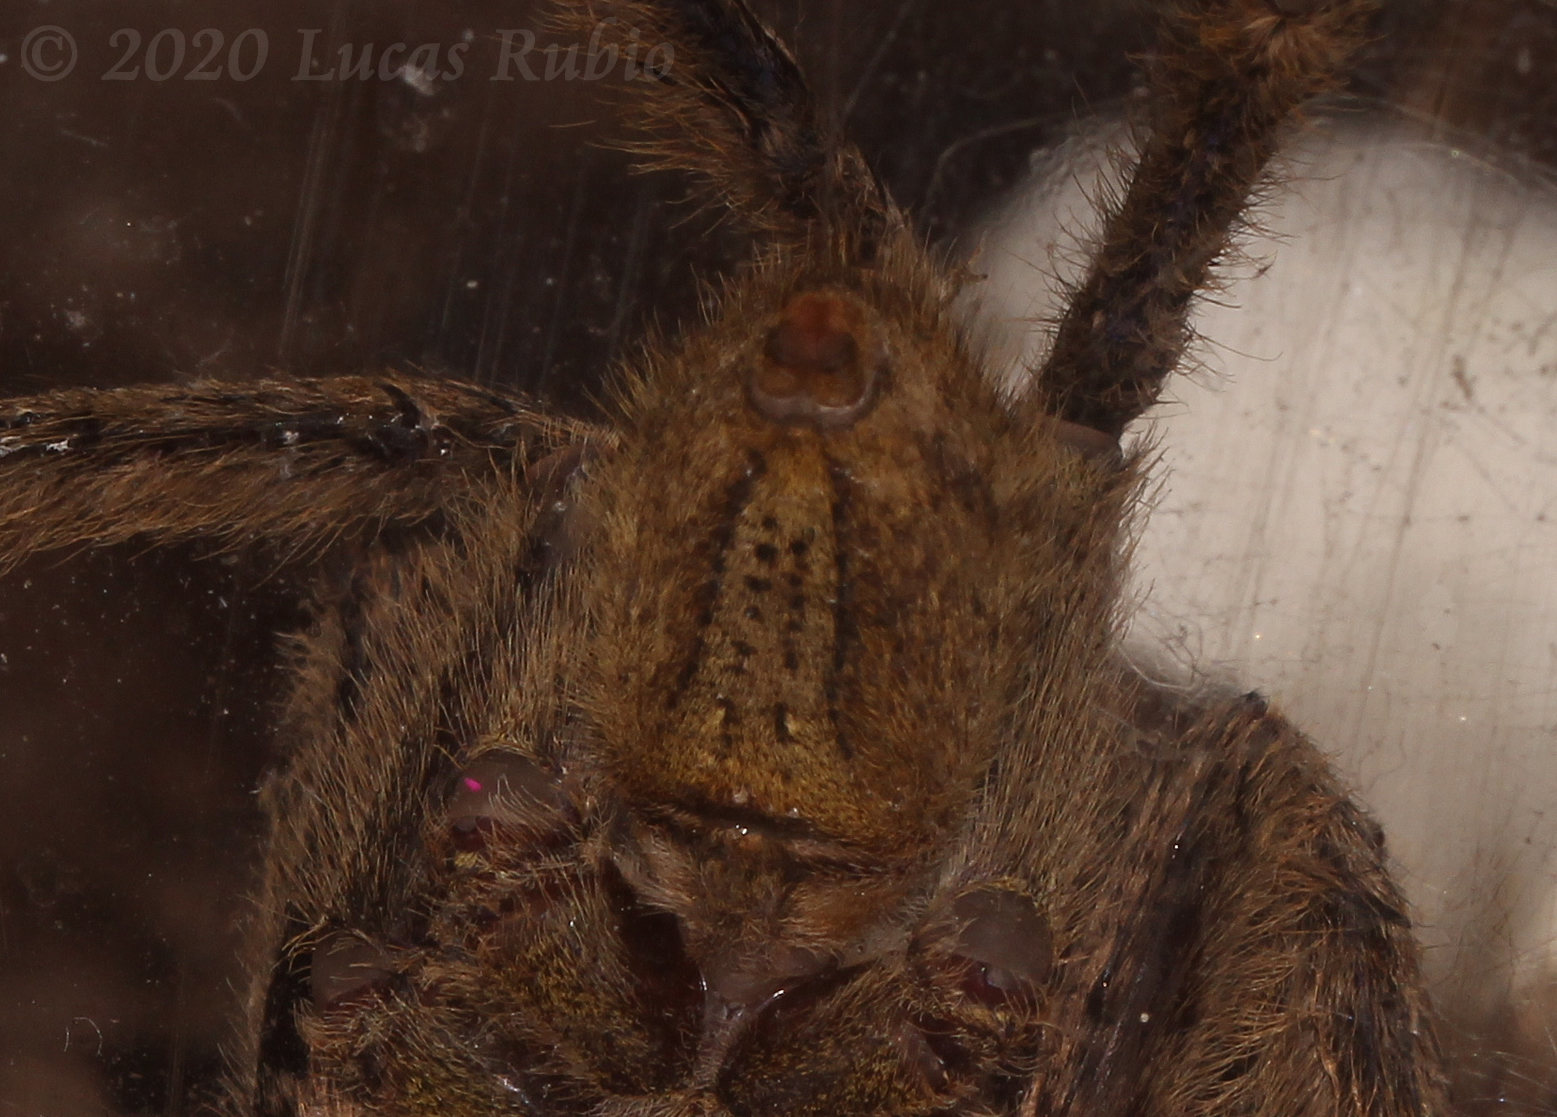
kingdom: Animalia
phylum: Arthropoda
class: Arachnida
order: Araneae
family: Ctenidae
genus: Phoneutria
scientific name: Phoneutria boliviensis
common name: Wandering spiders
